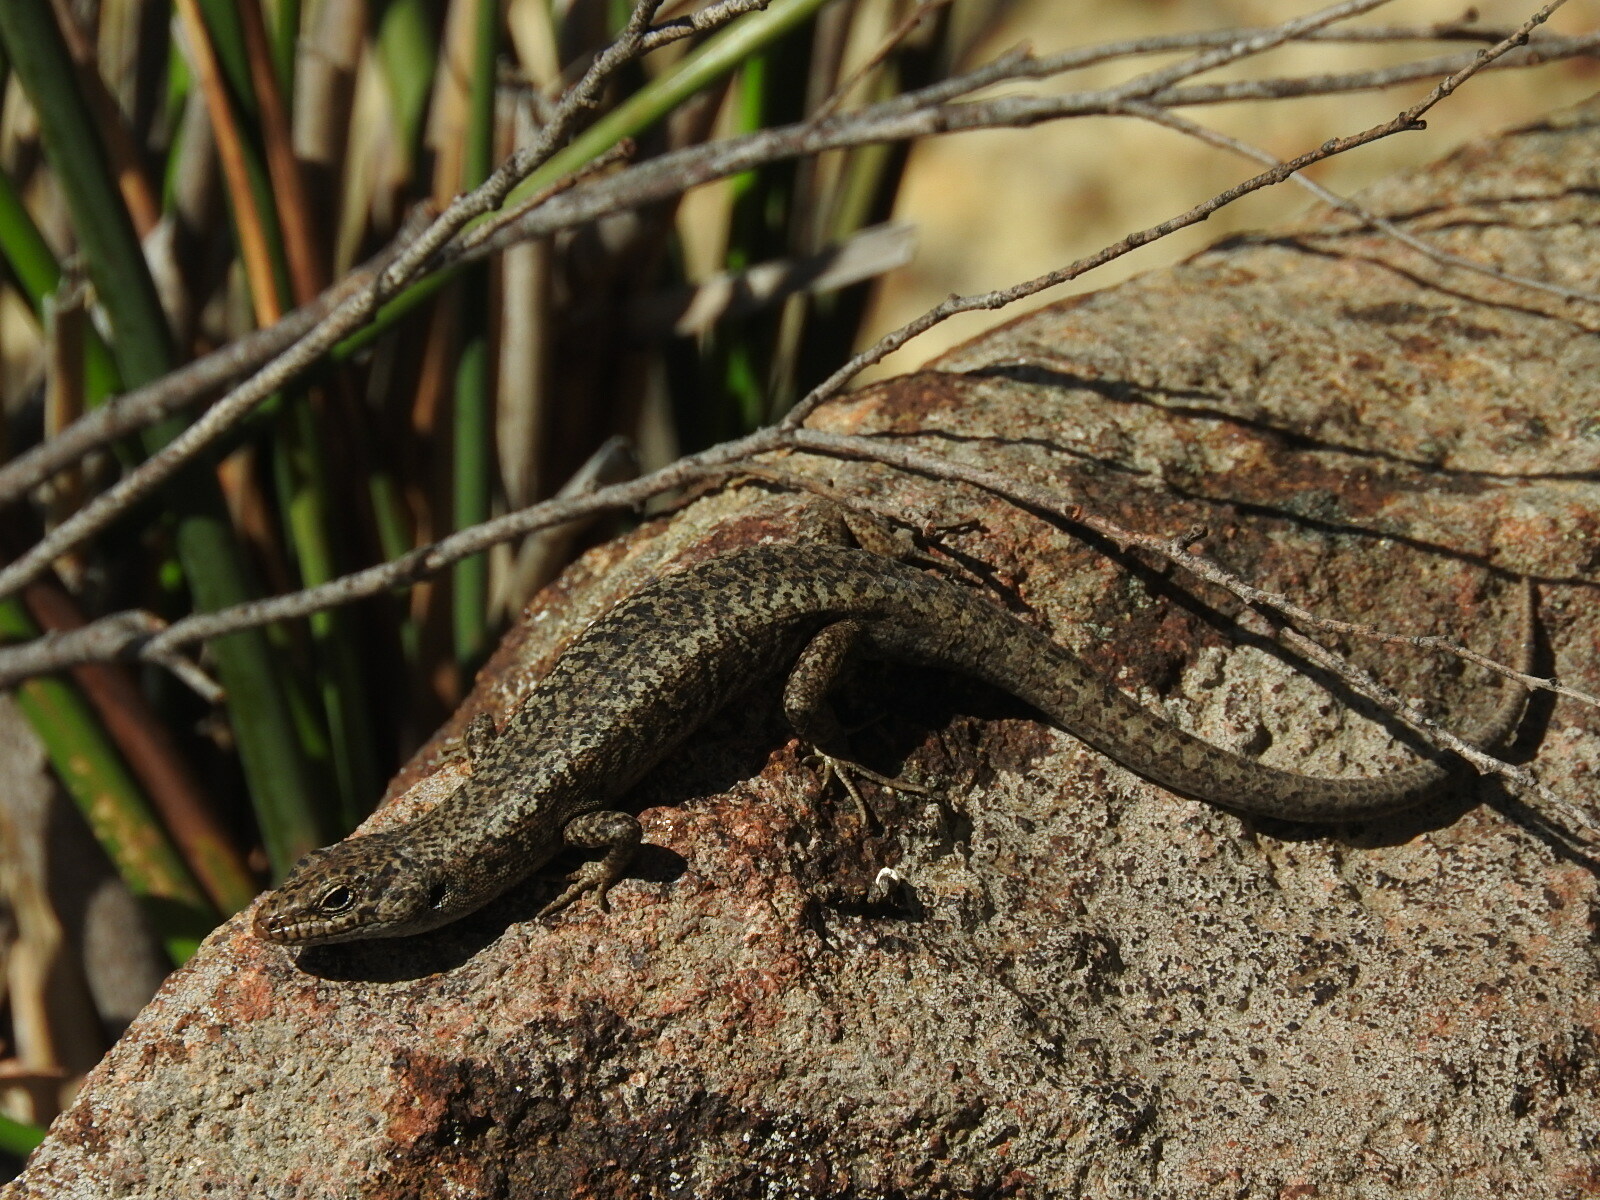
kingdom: Animalia
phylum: Chordata
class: Squamata
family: Scincidae
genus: Carinascincus
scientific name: Carinascincus ocellatus
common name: Ocellated cool-skink
